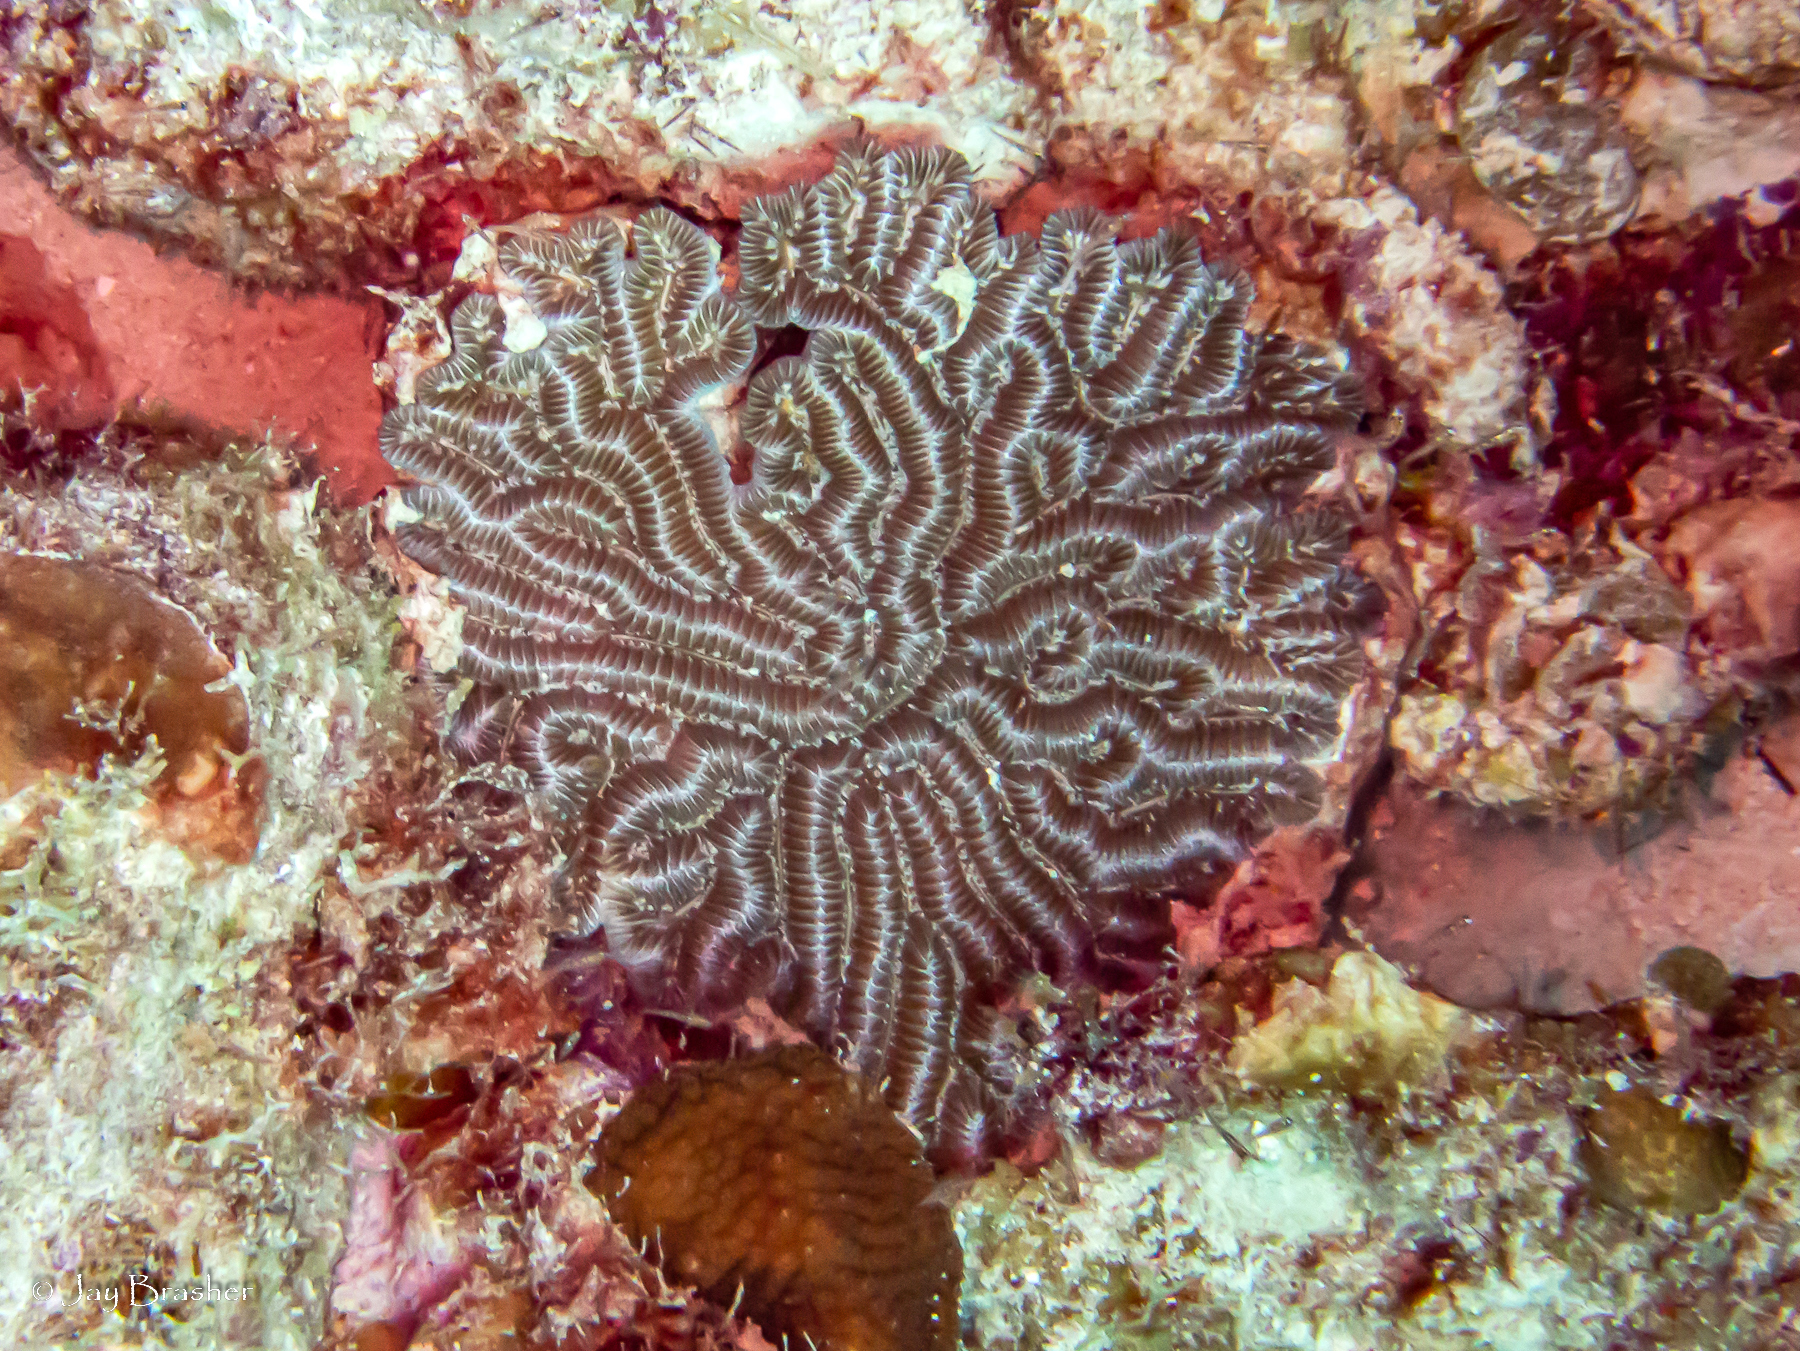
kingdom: Animalia
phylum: Cnidaria
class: Anthozoa
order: Scleractinia
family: Meandrinidae
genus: Meandrina
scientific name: Meandrina meandrites
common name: Maze coral
